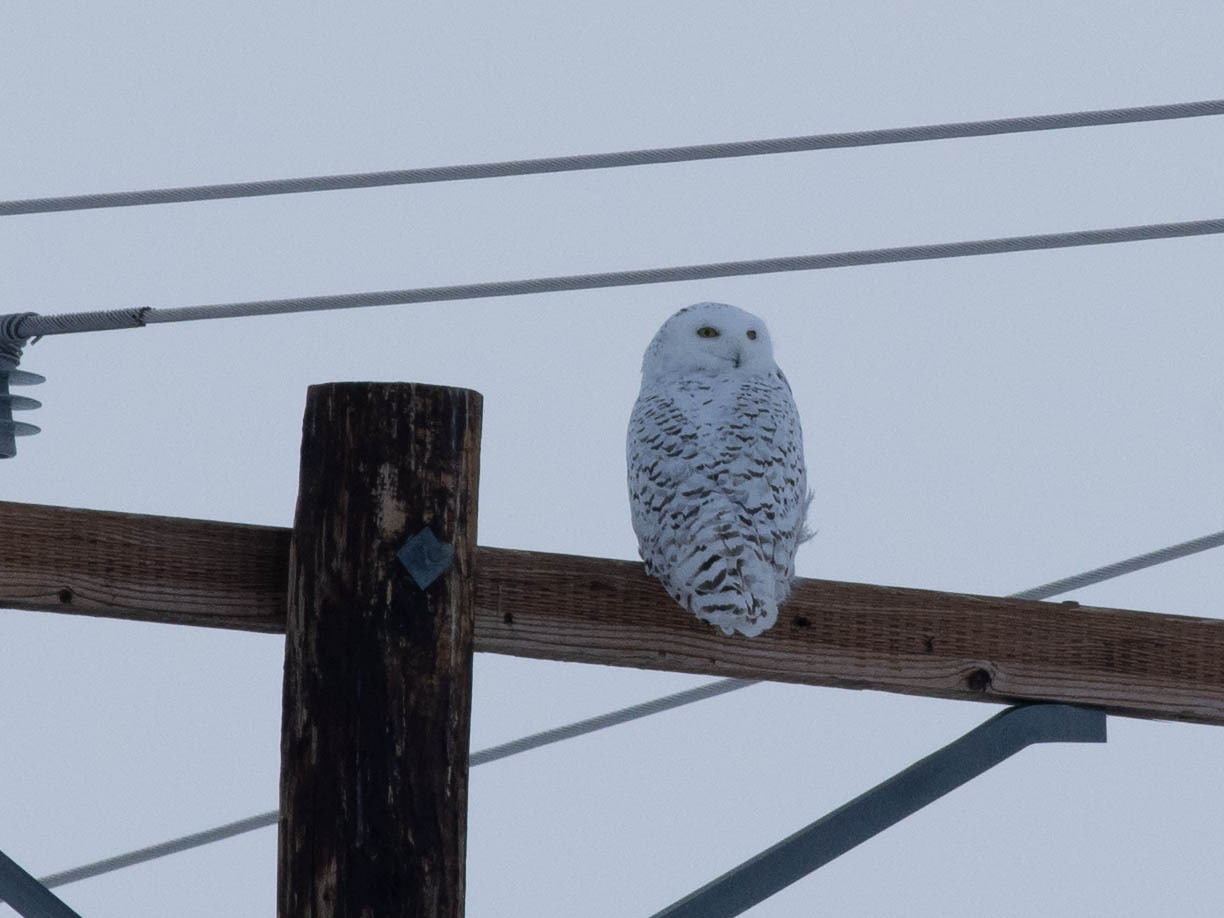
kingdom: Animalia
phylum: Chordata
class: Aves
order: Strigiformes
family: Strigidae
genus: Bubo
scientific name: Bubo scandiacus
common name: Snowy owl
